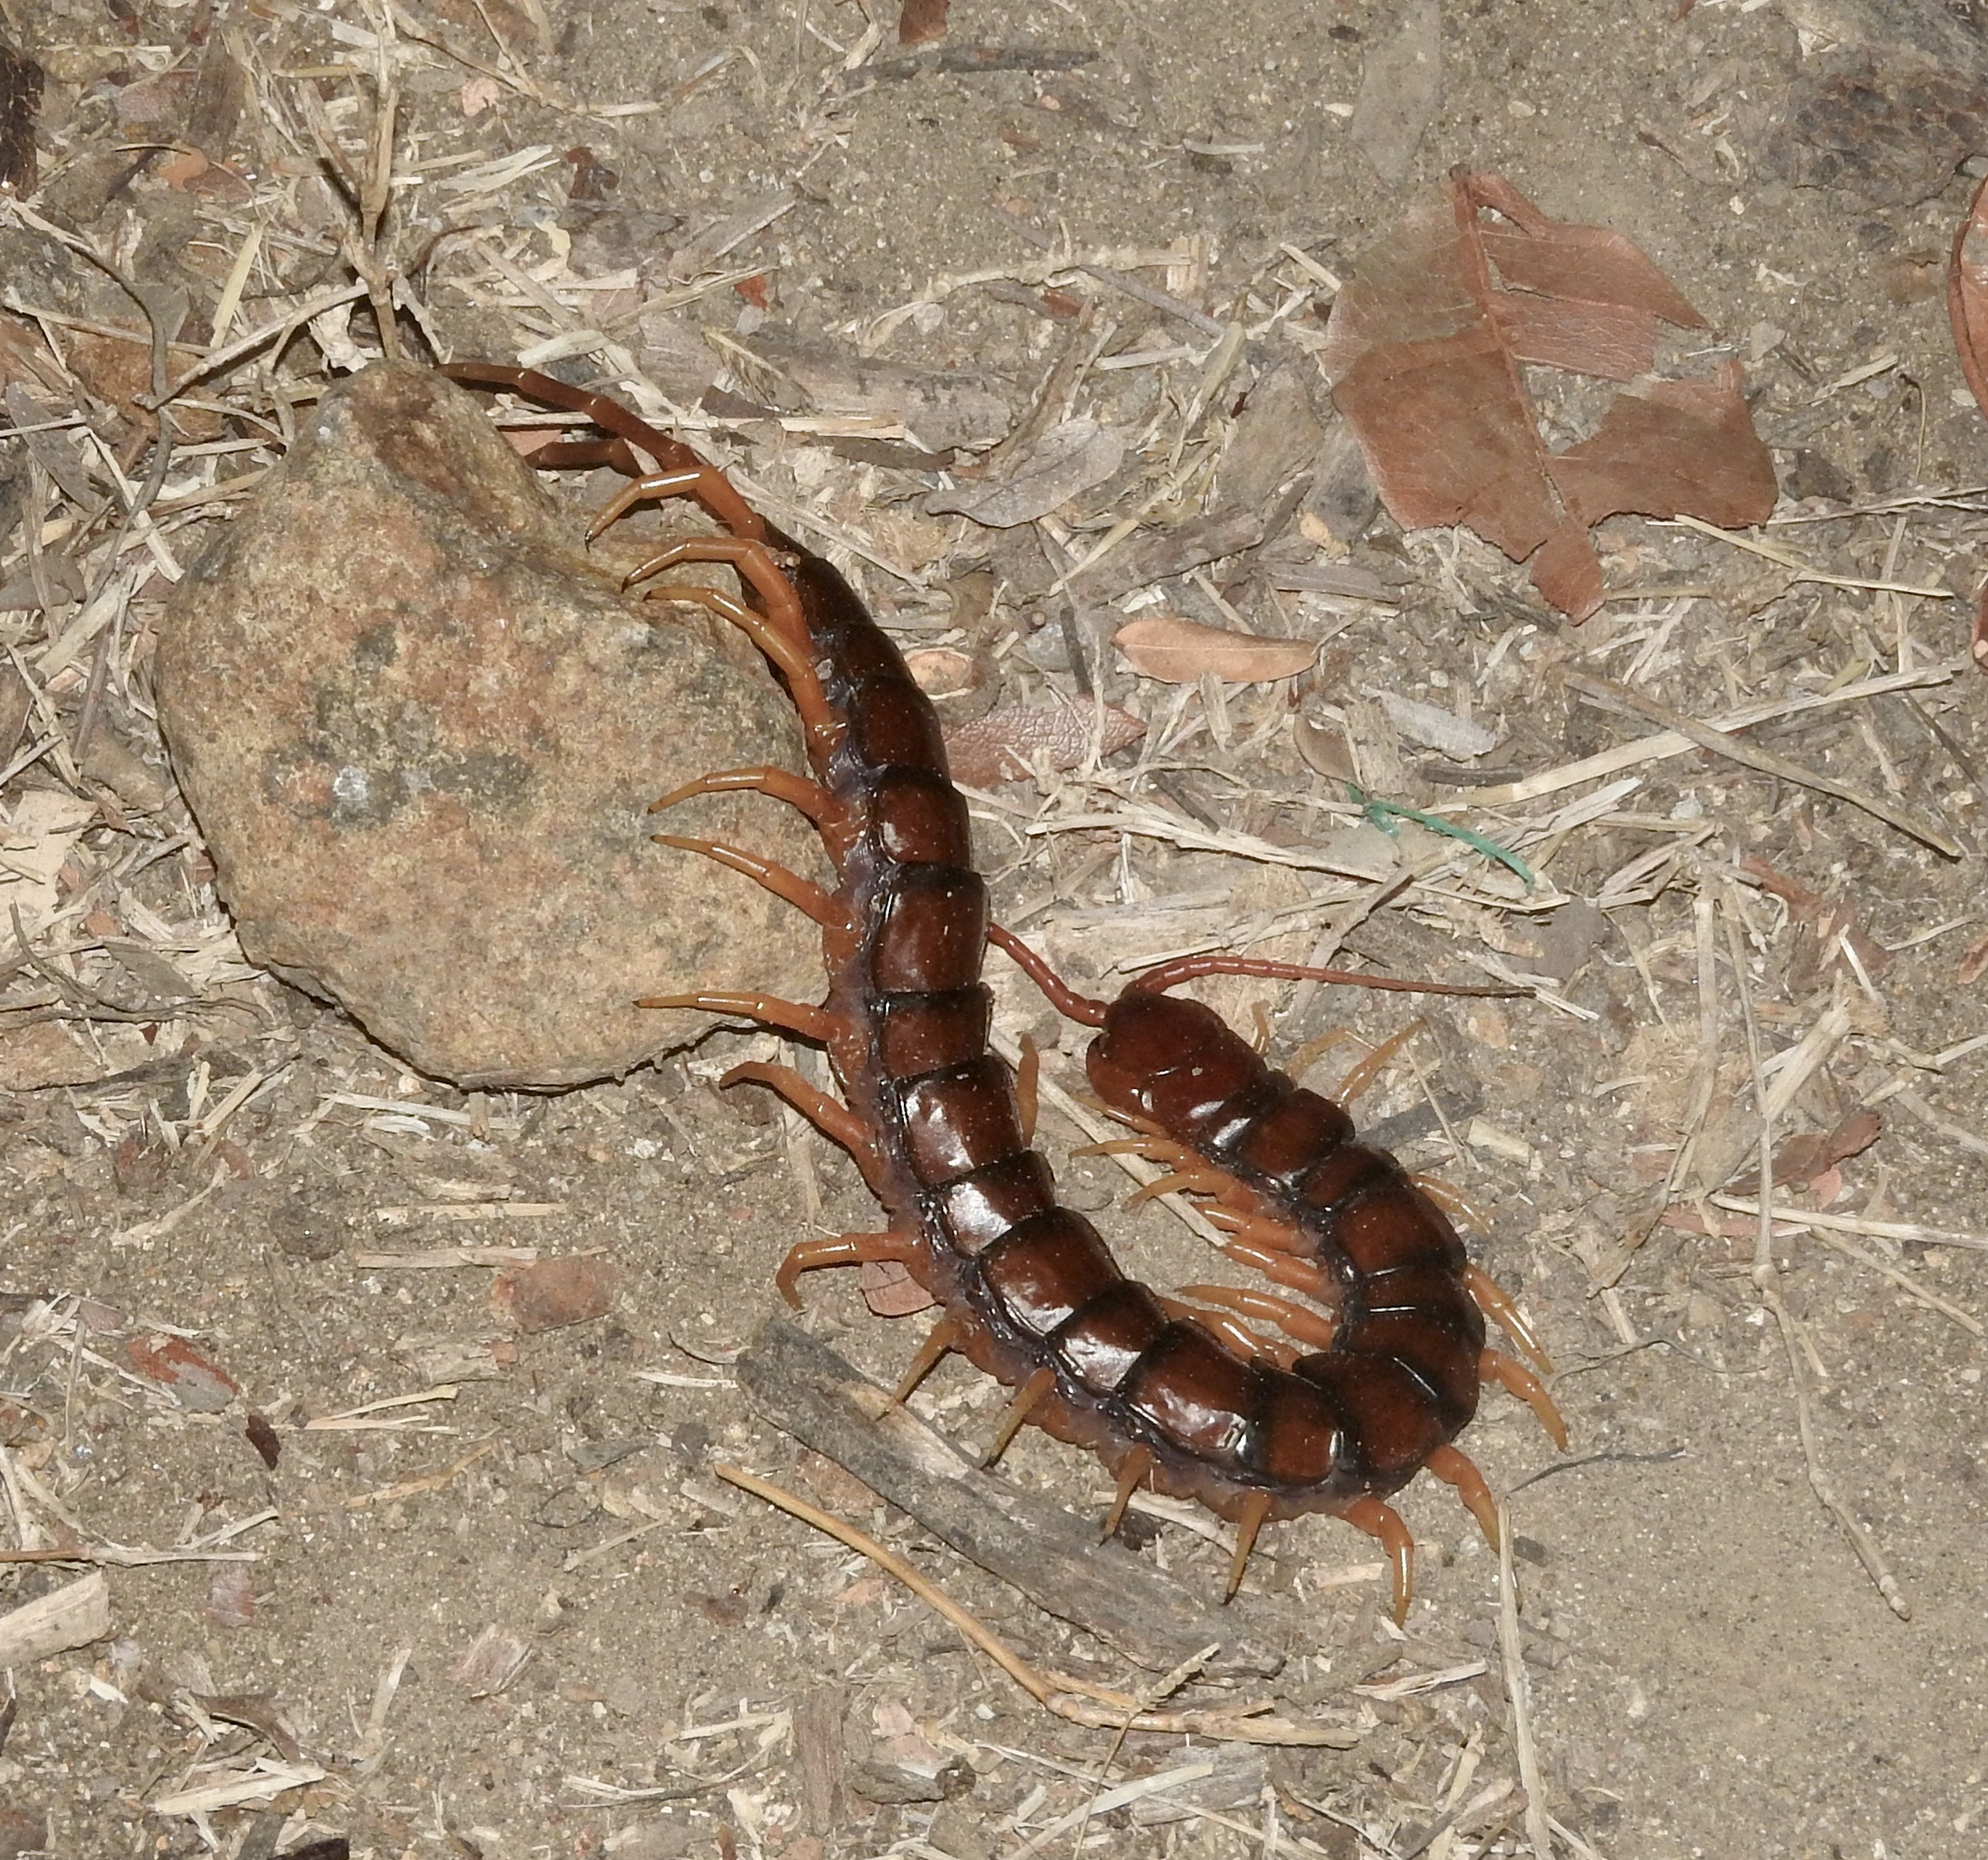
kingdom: Animalia
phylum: Arthropoda
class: Chilopoda
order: Scolopendromorpha
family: Scolopendridae
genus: Scolopendra
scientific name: Scolopendra subspinipes
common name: Centipede
